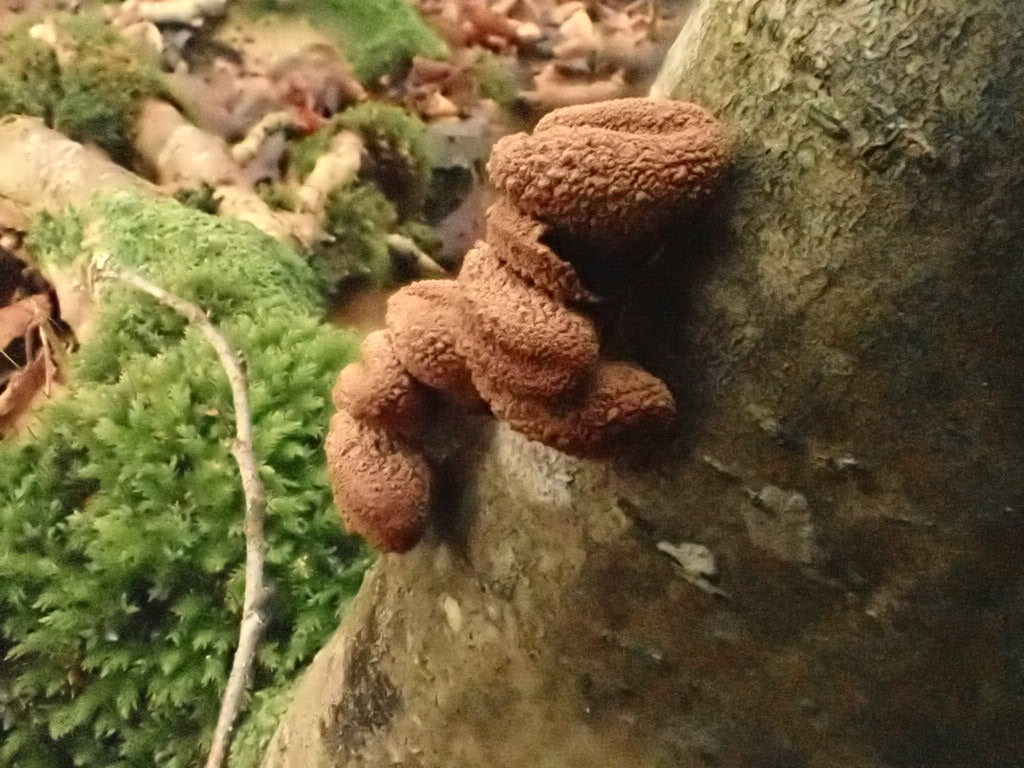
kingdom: Fungi
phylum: Ascomycota
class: Leotiomycetes
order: Helotiales
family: Cenangiaceae
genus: Encoelia
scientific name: Encoelia furfuracea
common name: Spring hazelcup
